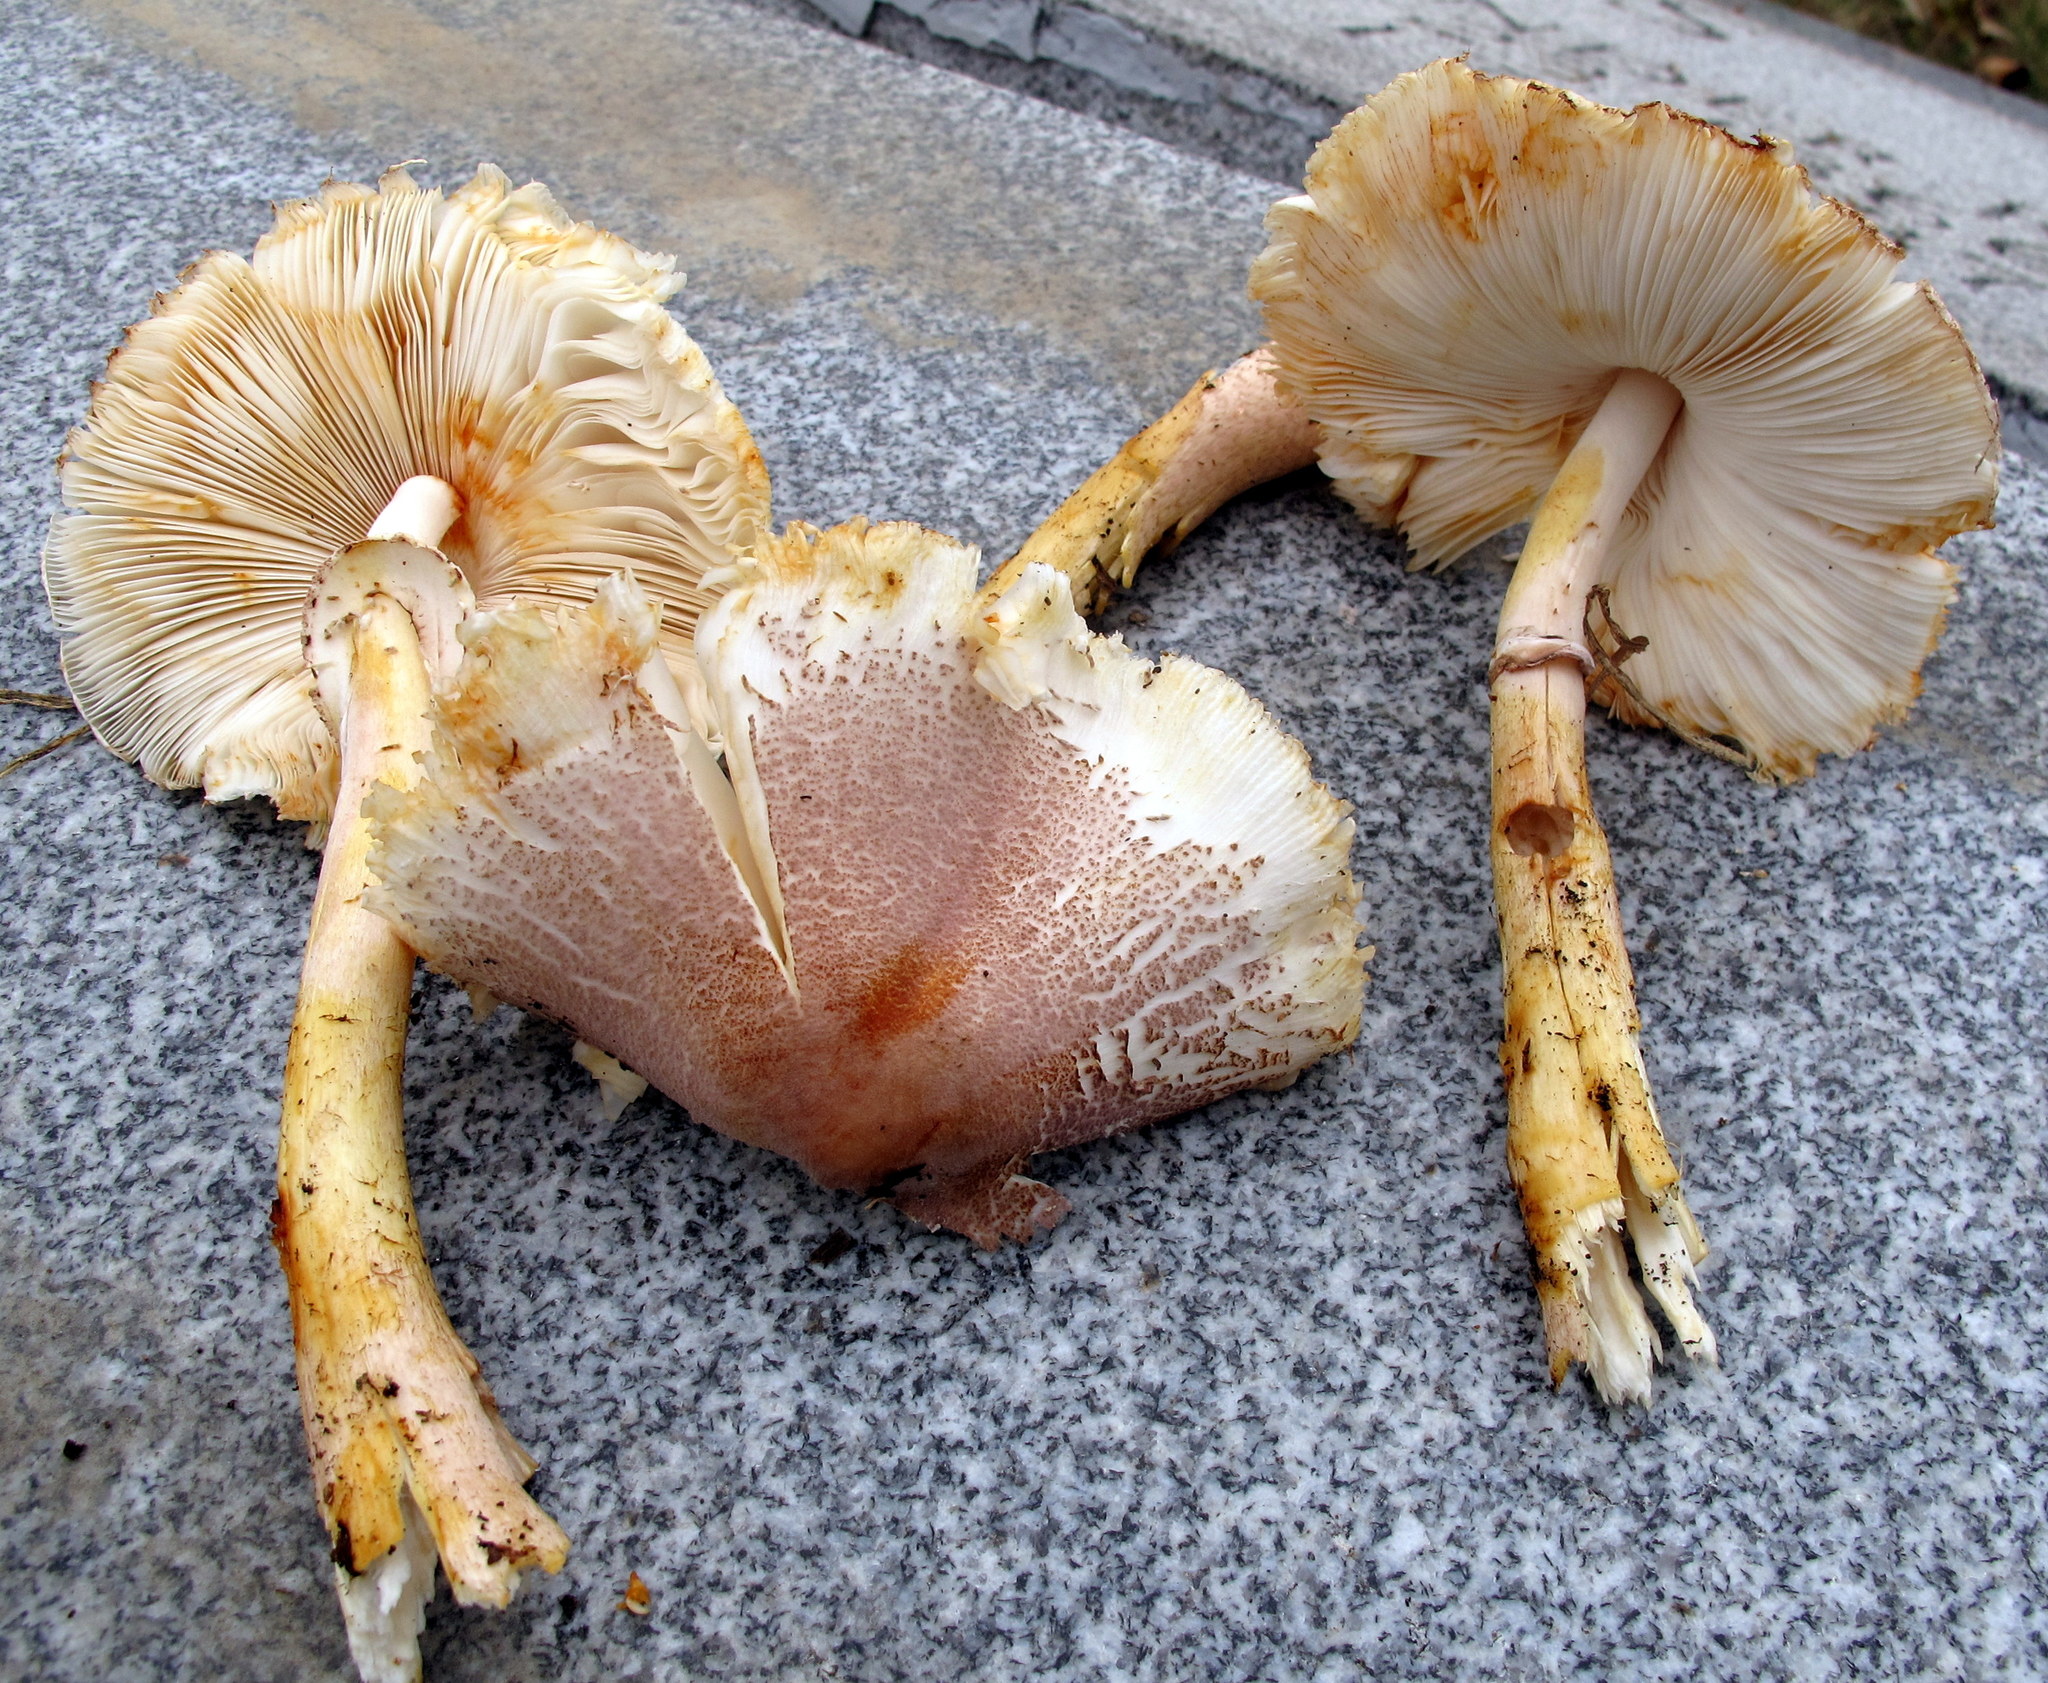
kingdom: Fungi
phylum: Basidiomycota
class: Agaricomycetes
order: Agaricales
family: Agaricaceae
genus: Leucoagaricus
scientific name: Leucoagaricus americanus
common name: Reddening lepiota
